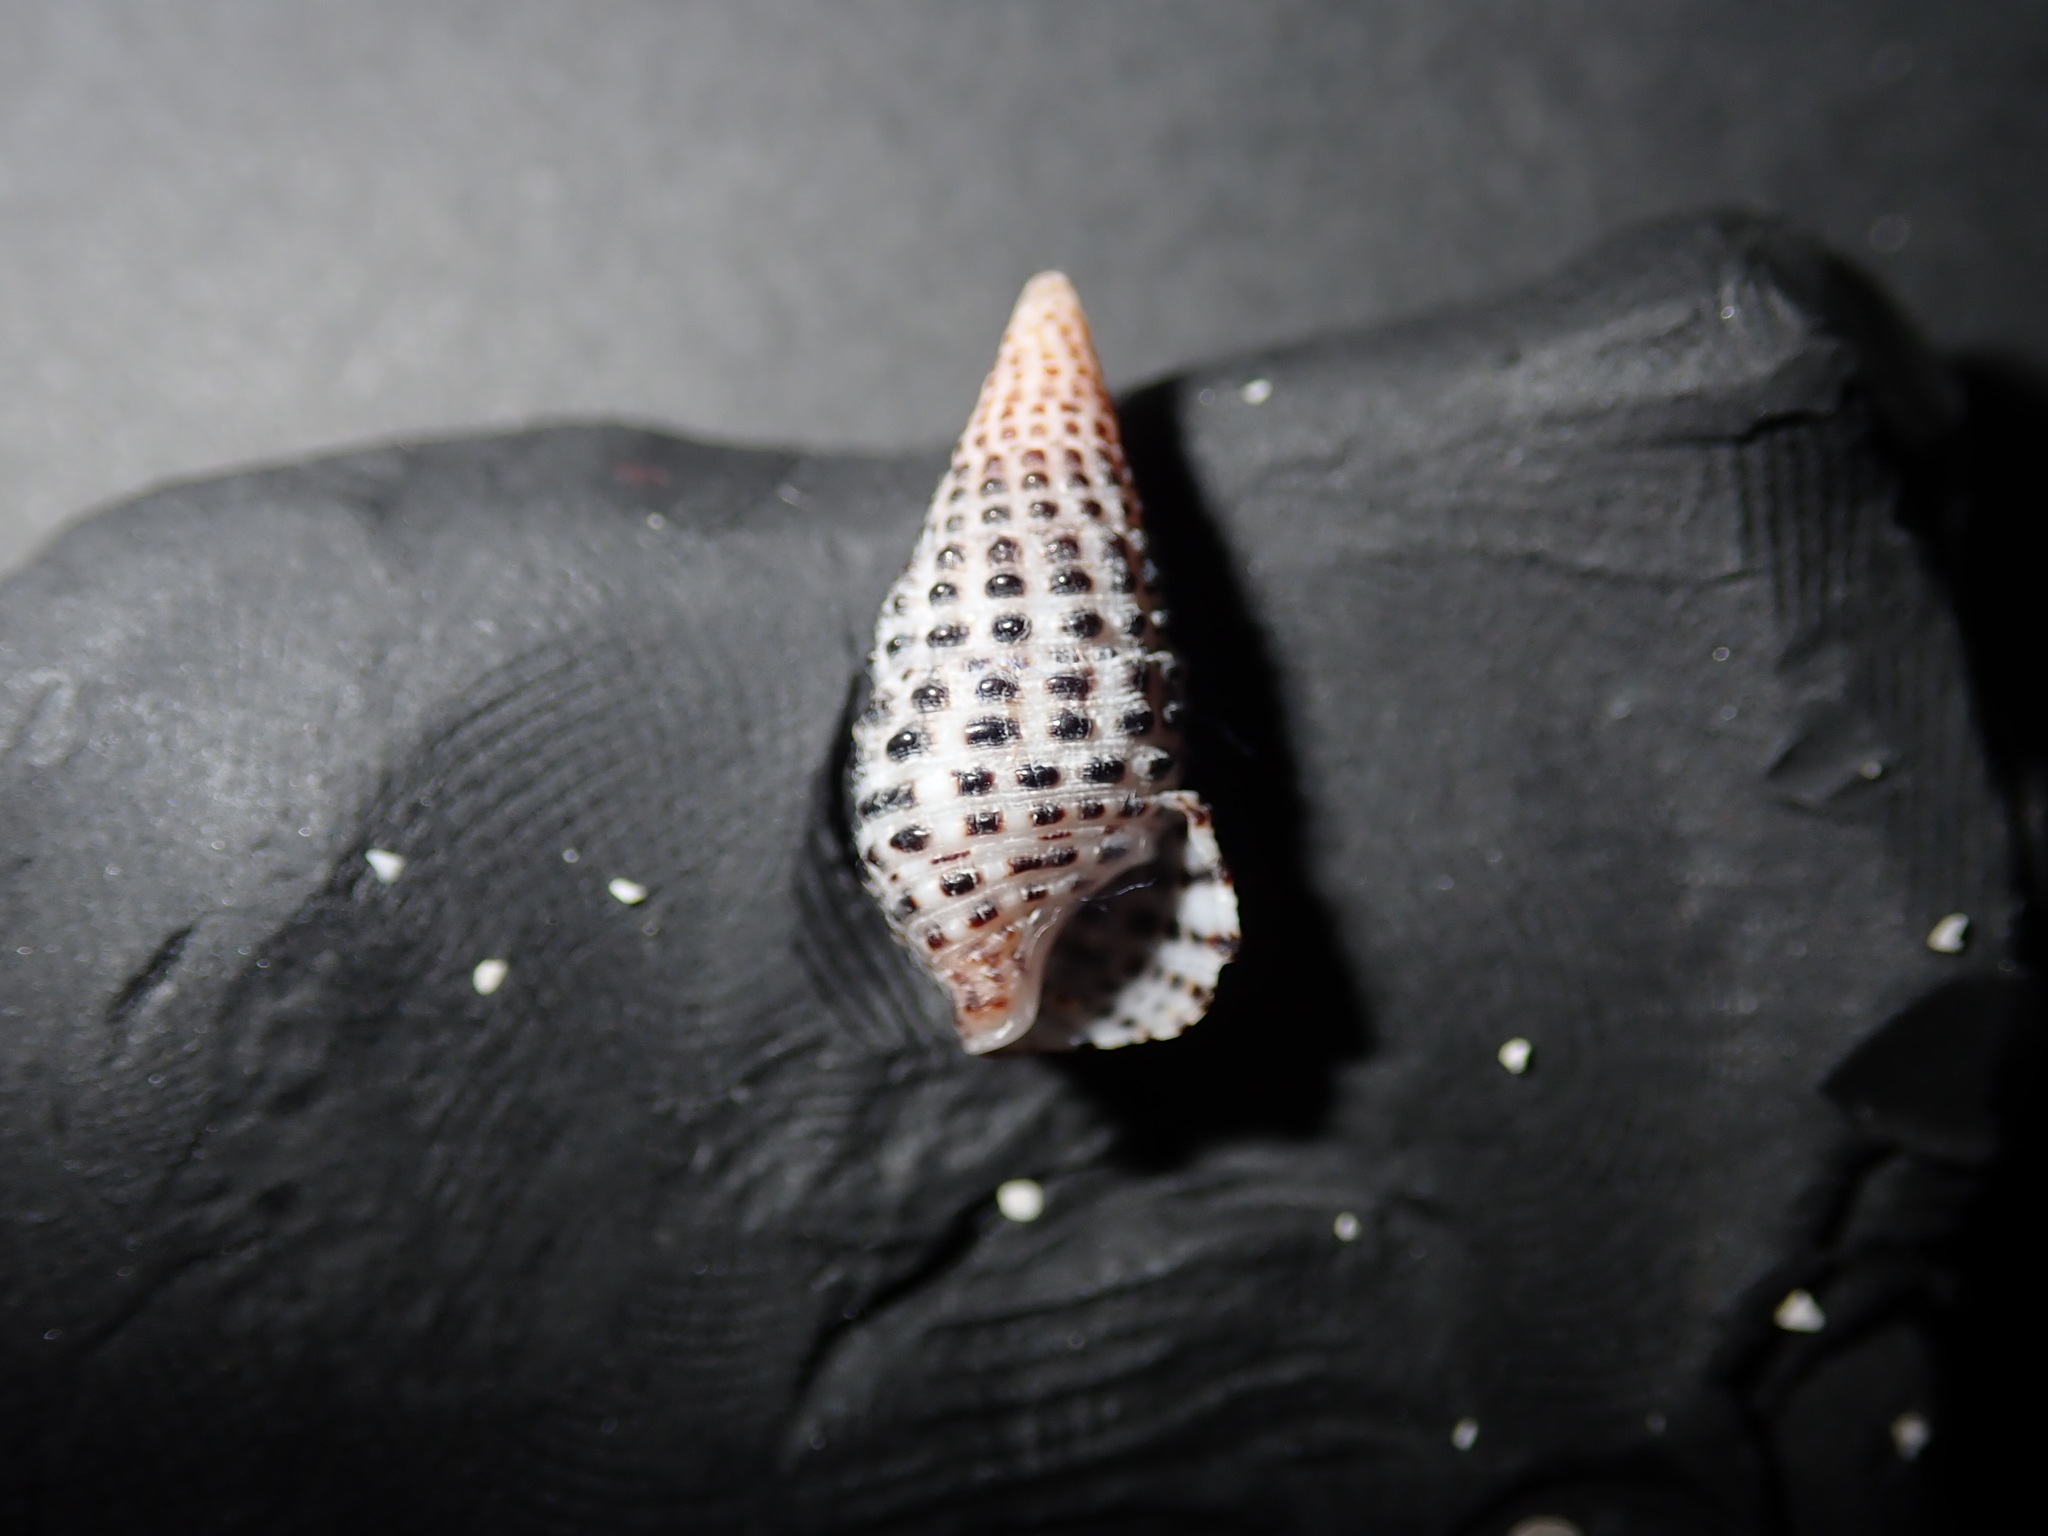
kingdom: Animalia
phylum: Mollusca
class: Gastropoda
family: Cerithiidae
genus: Clypeomorus
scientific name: Clypeomorus bifasciata
